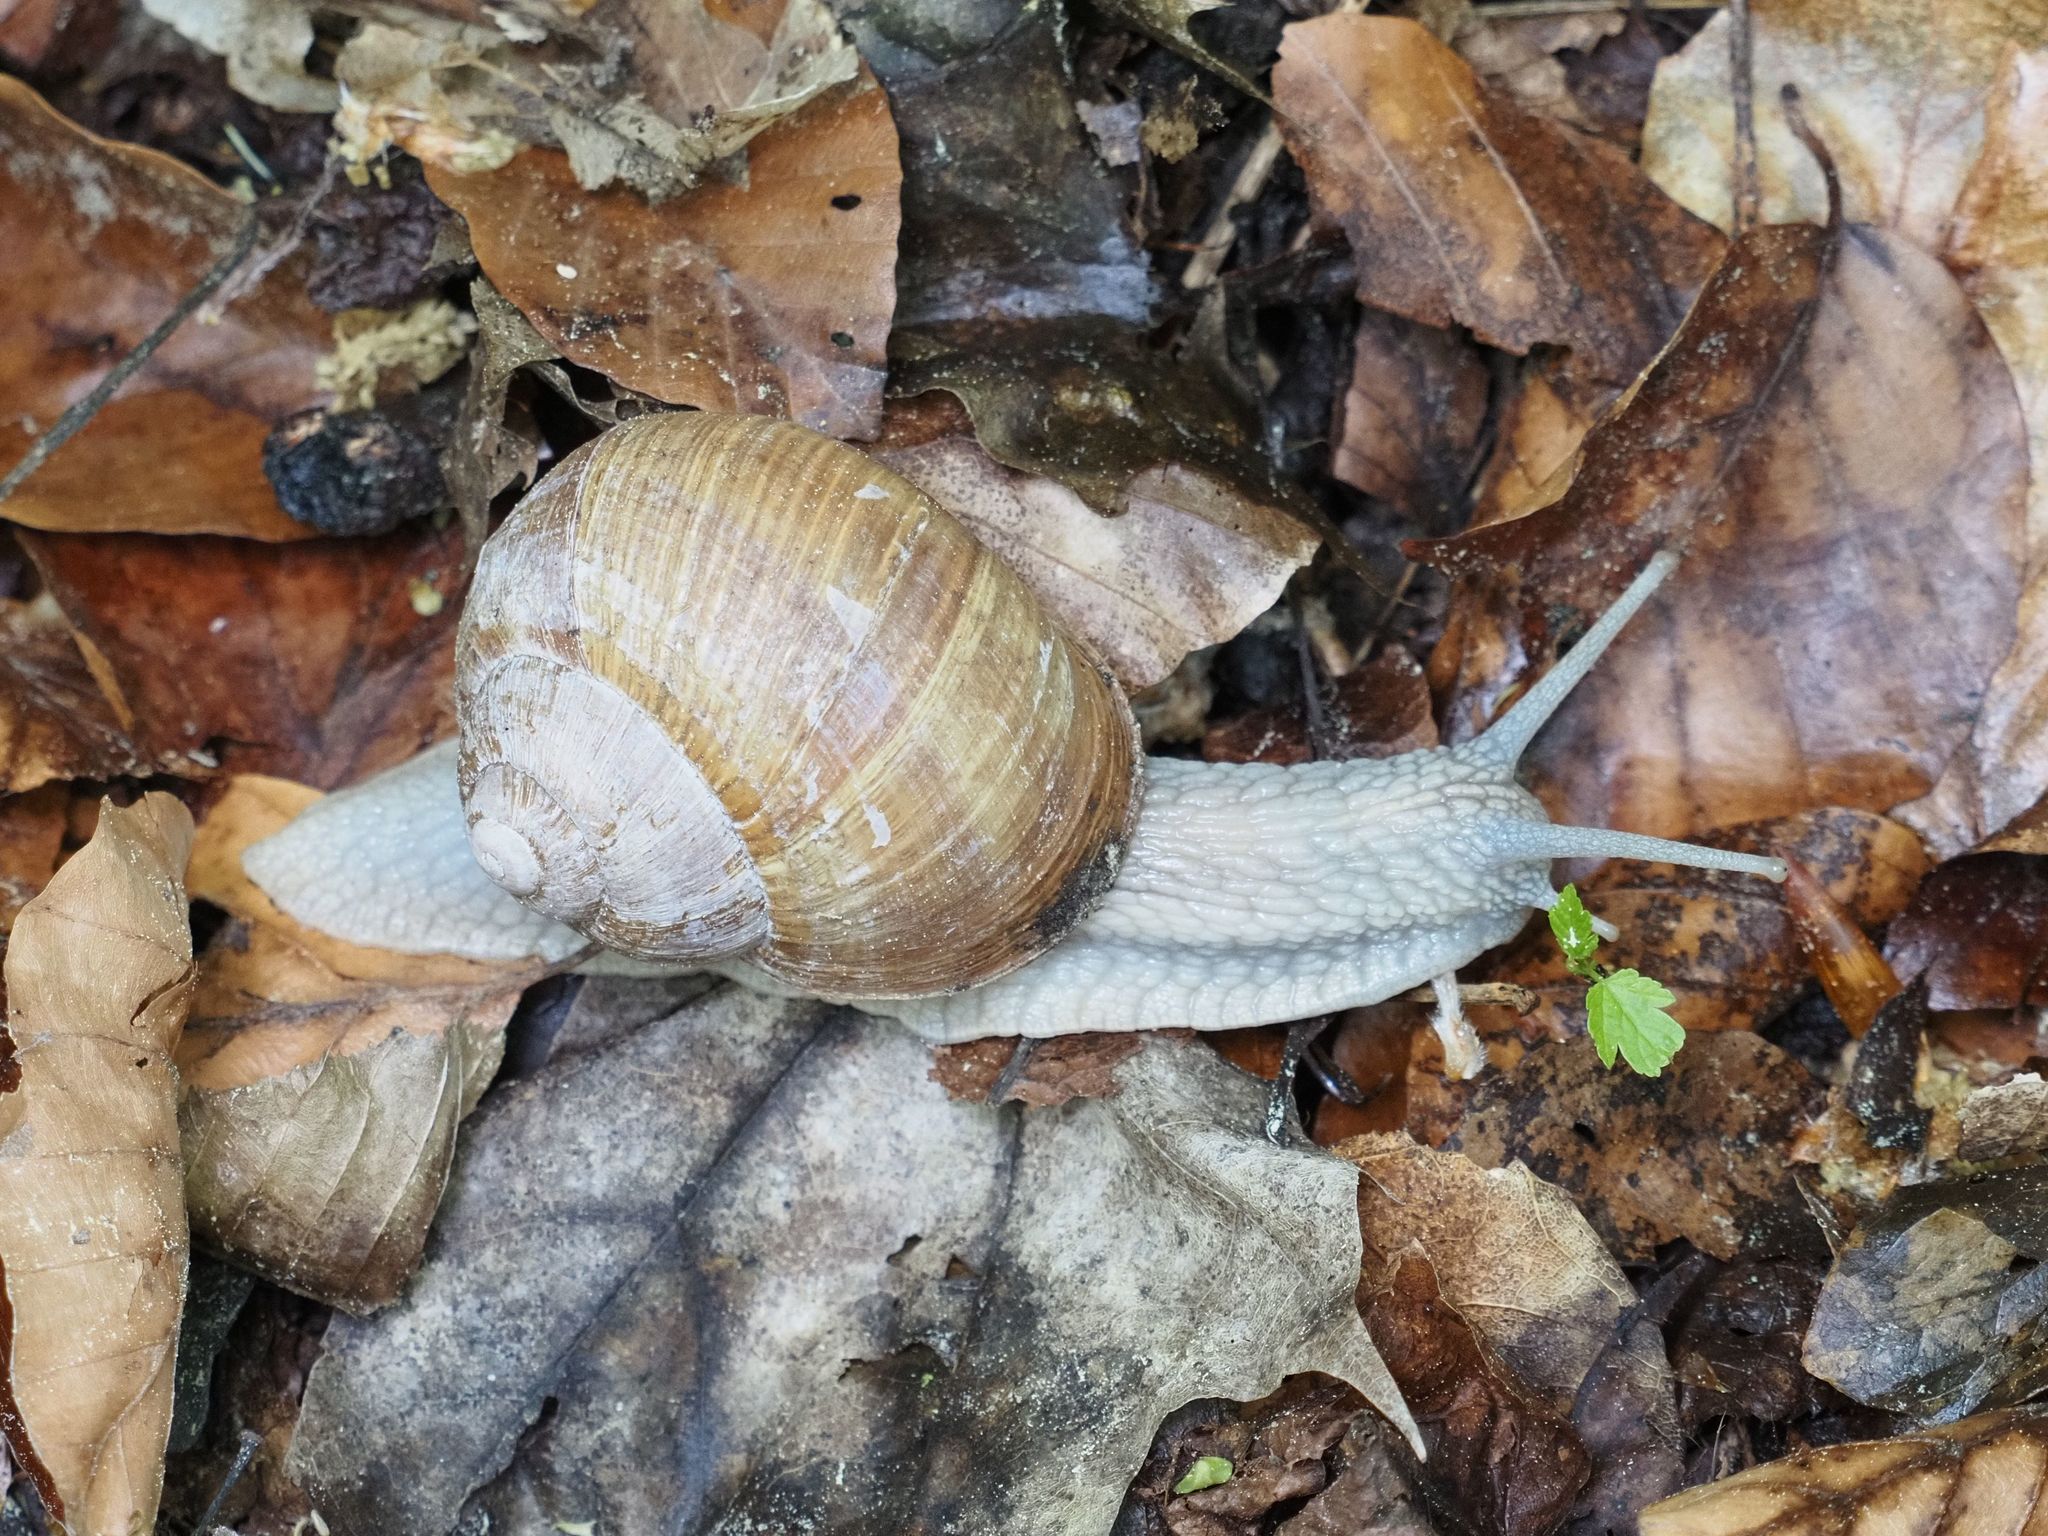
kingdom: Animalia
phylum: Mollusca
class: Gastropoda
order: Stylommatophora
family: Helicidae
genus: Helix
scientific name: Helix pomatia
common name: Roman snail
